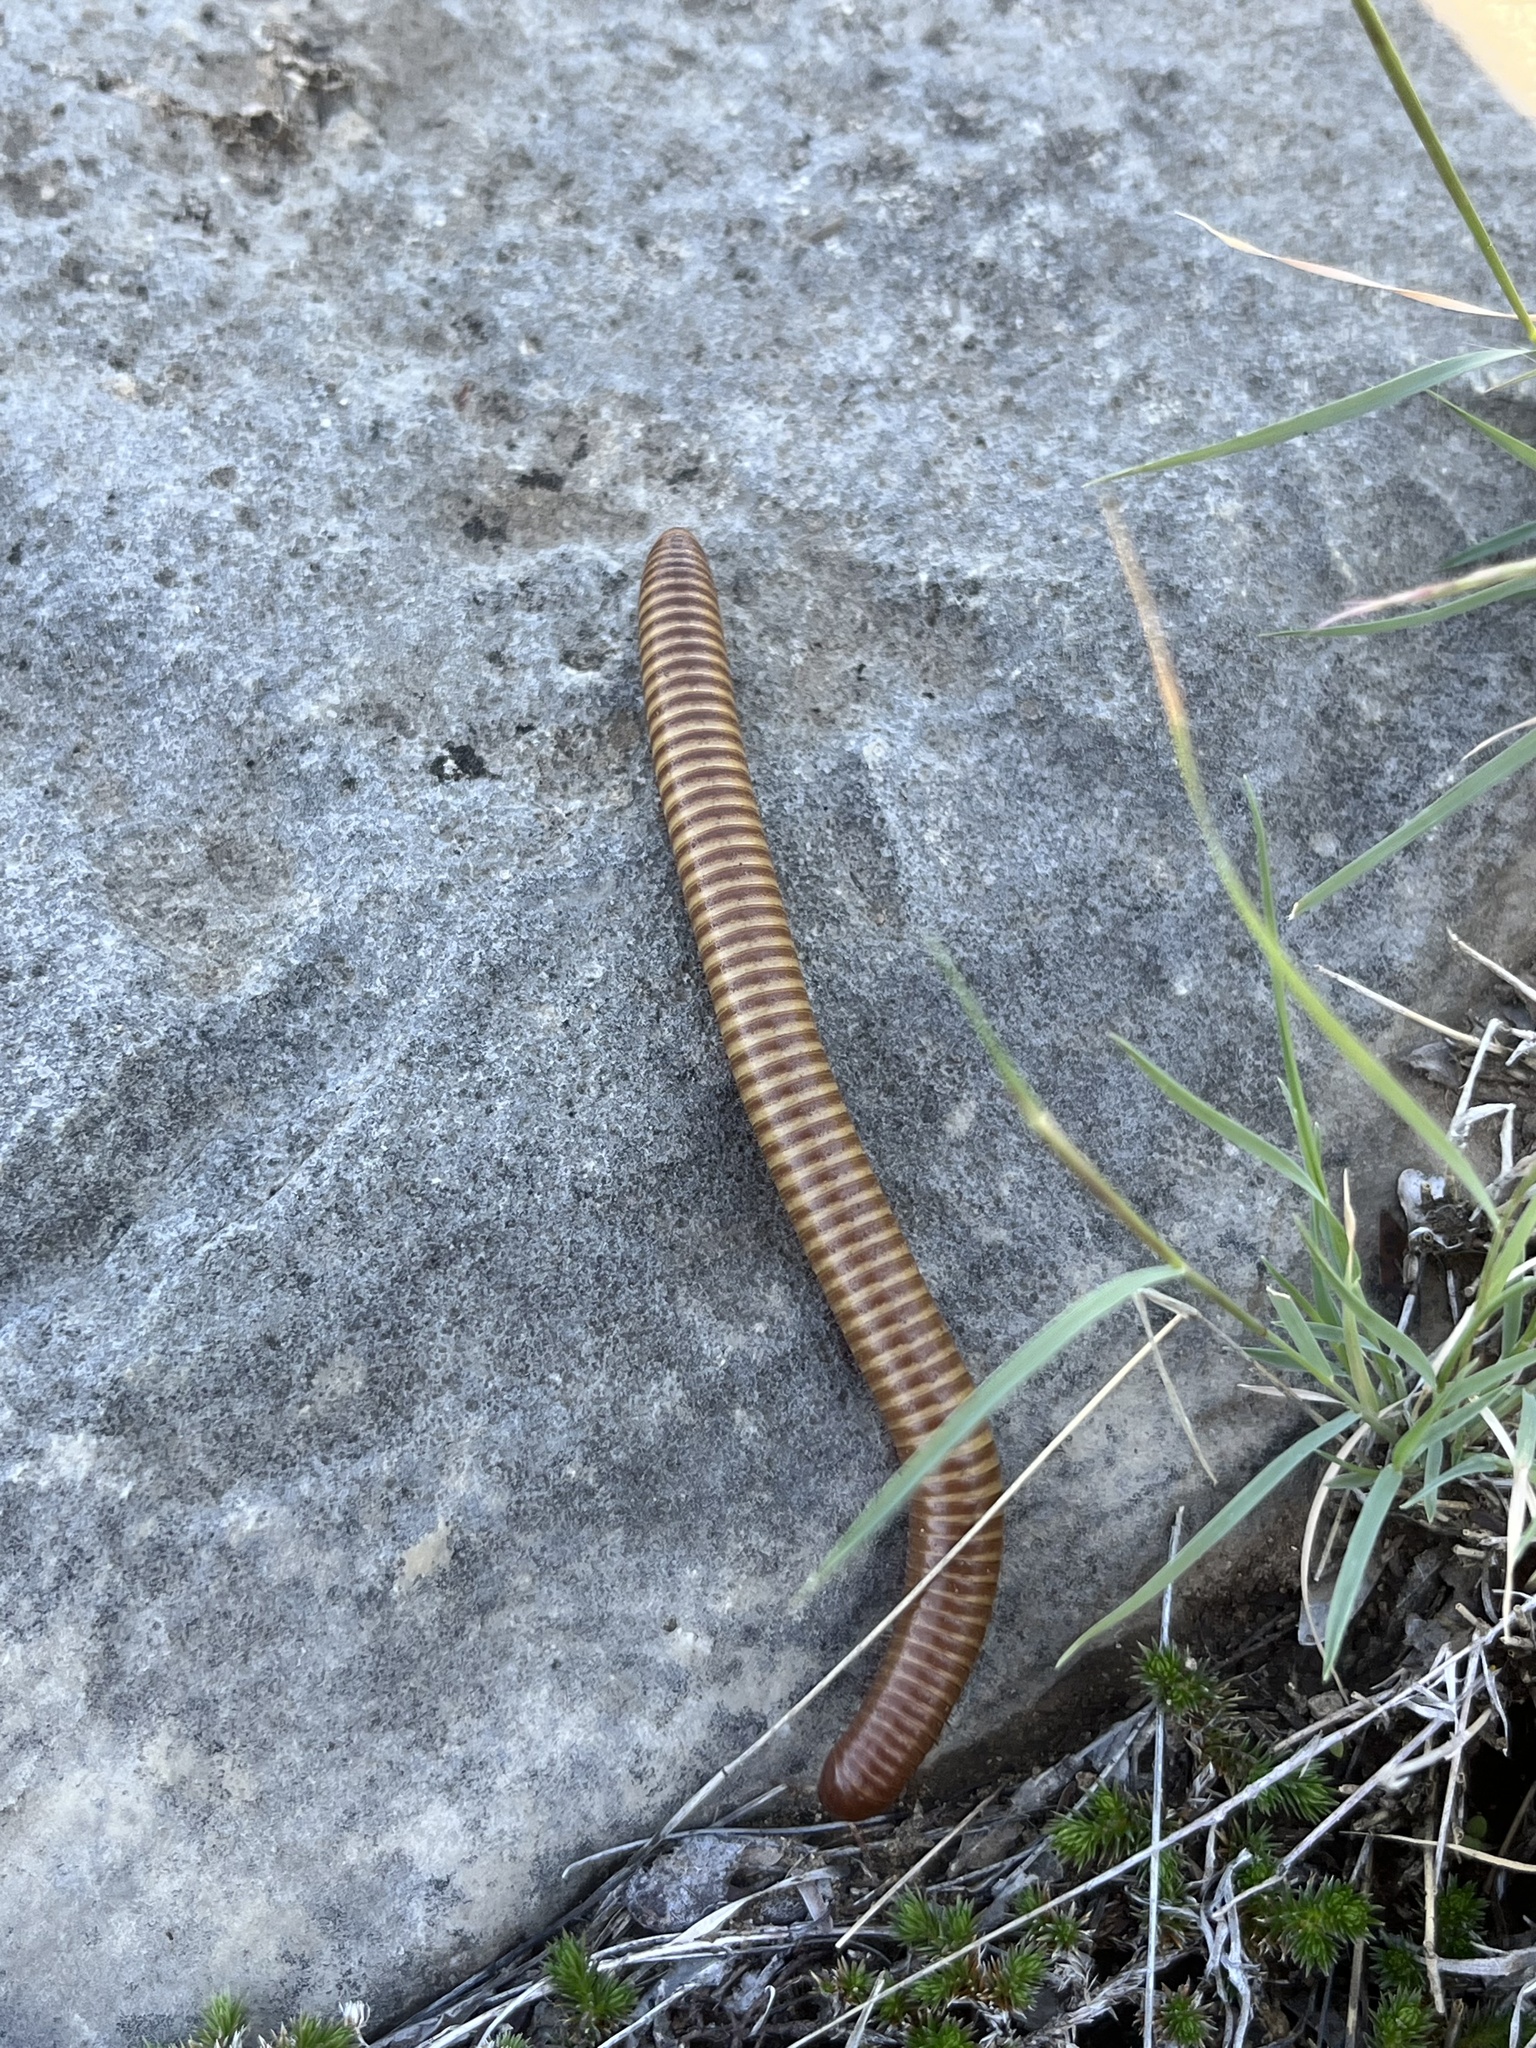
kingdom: Animalia
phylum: Arthropoda
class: Diplopoda
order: Spirostreptida
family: Spirostreptidae
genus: Orthoporus
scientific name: Orthoporus ornatus
